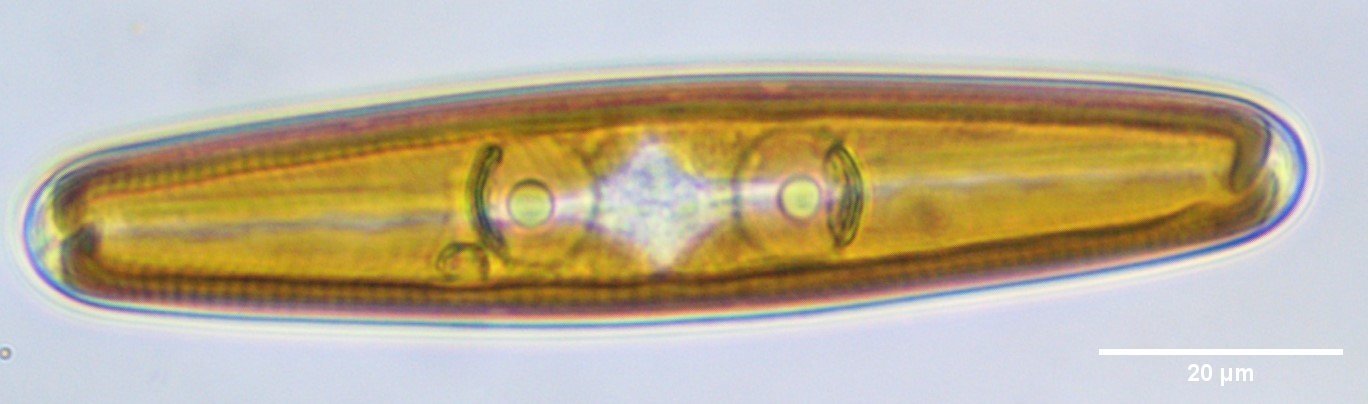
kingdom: Chromista
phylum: Ochrophyta
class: Bacillariophyceae
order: Naviculales
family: Naviculaceae
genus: Navicula
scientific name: Navicula oblonga
